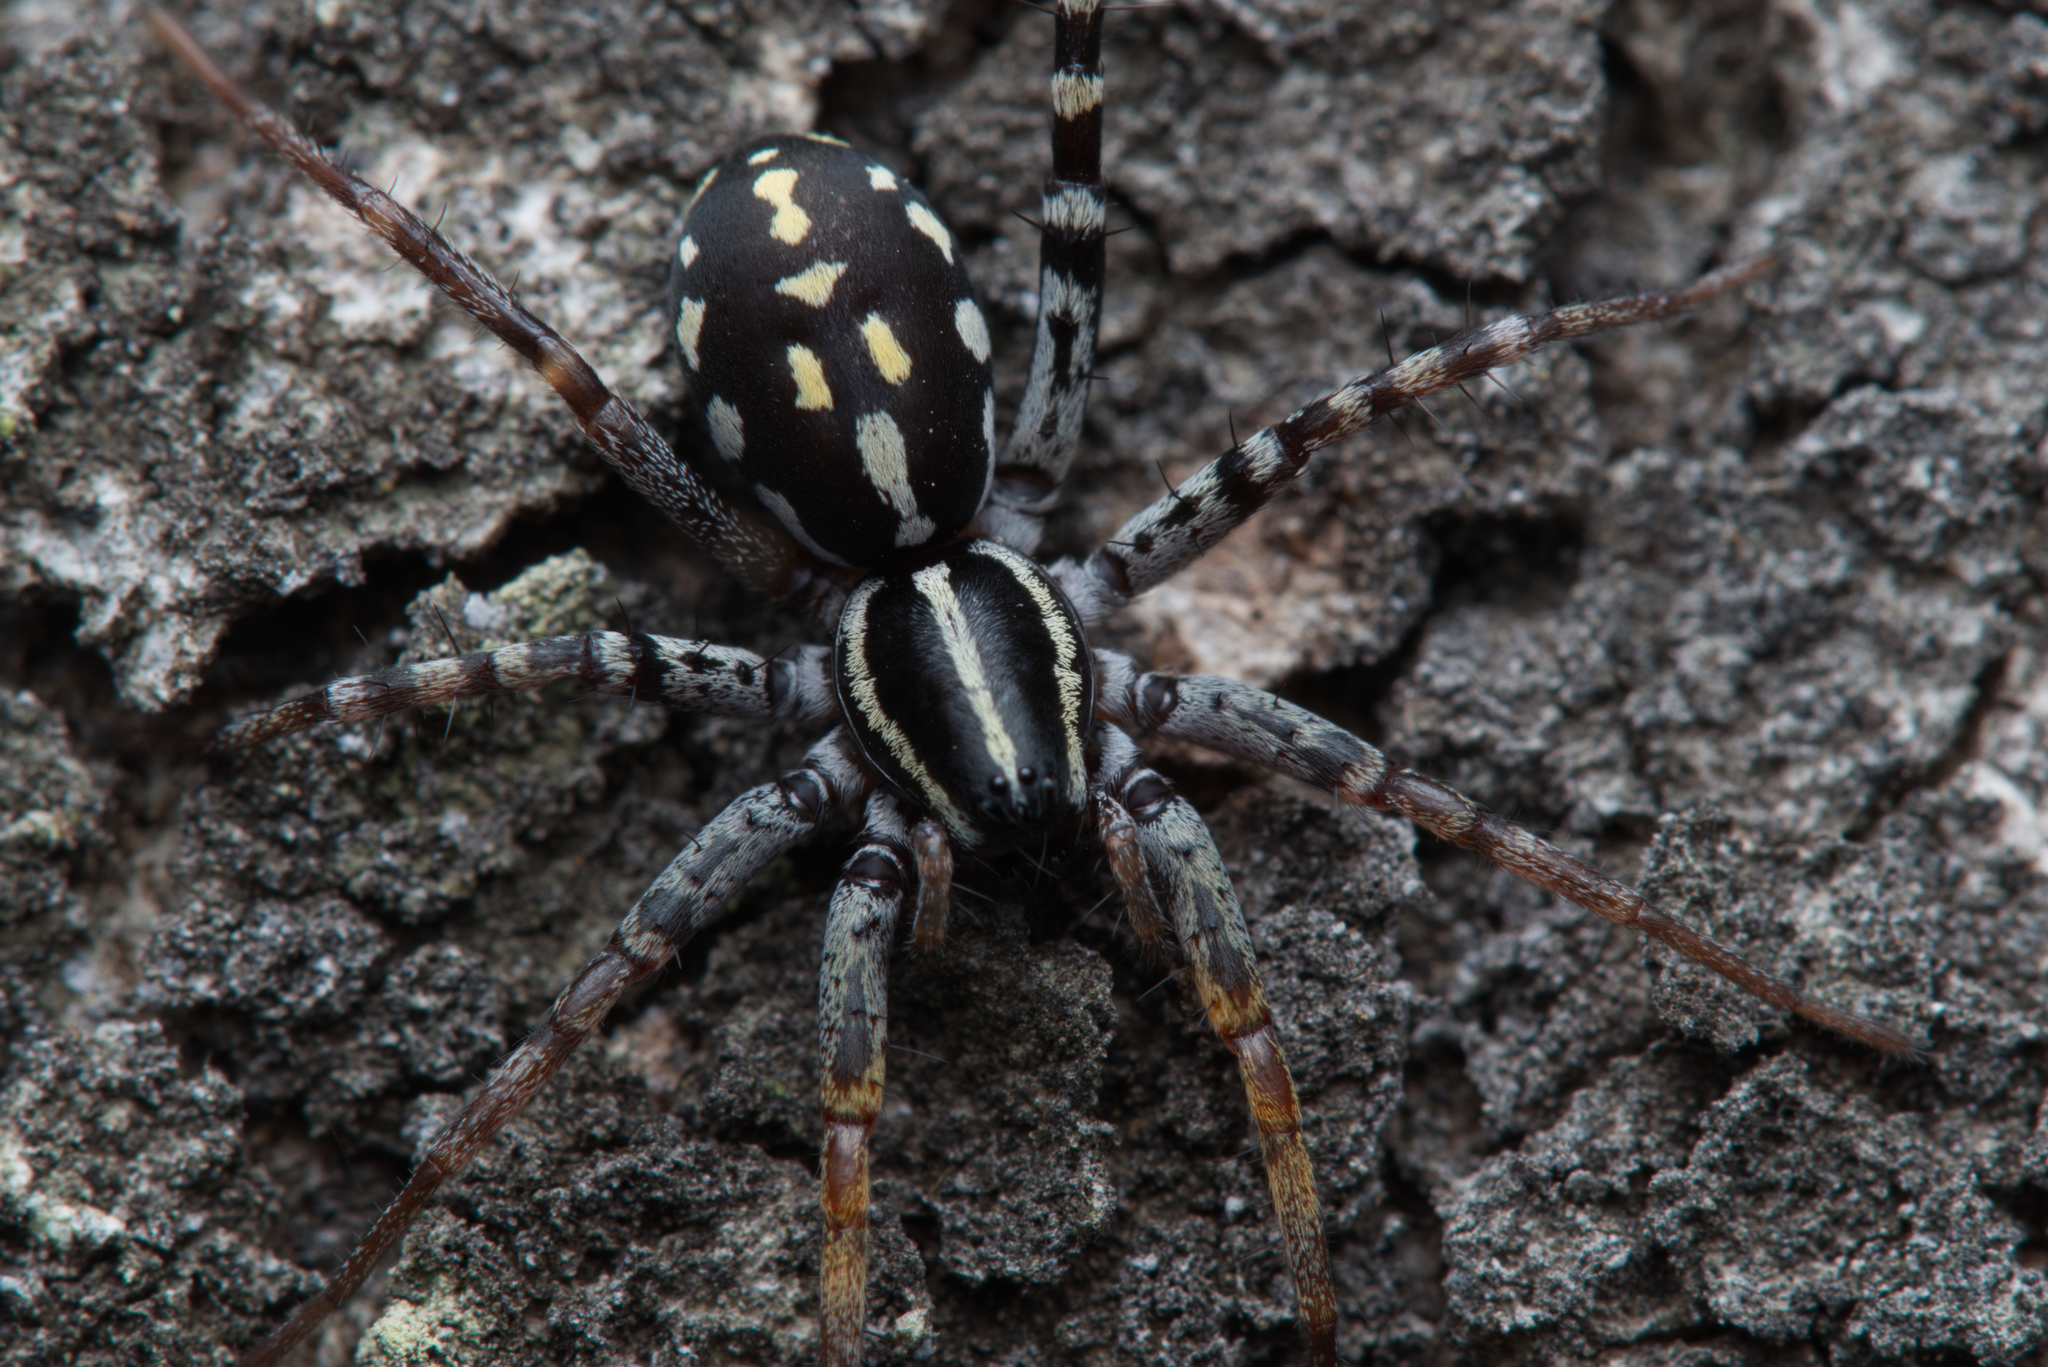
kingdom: Animalia
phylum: Arthropoda
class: Arachnida
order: Araneae
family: Corinnidae
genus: Nyssus
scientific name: Nyssus coloripes
